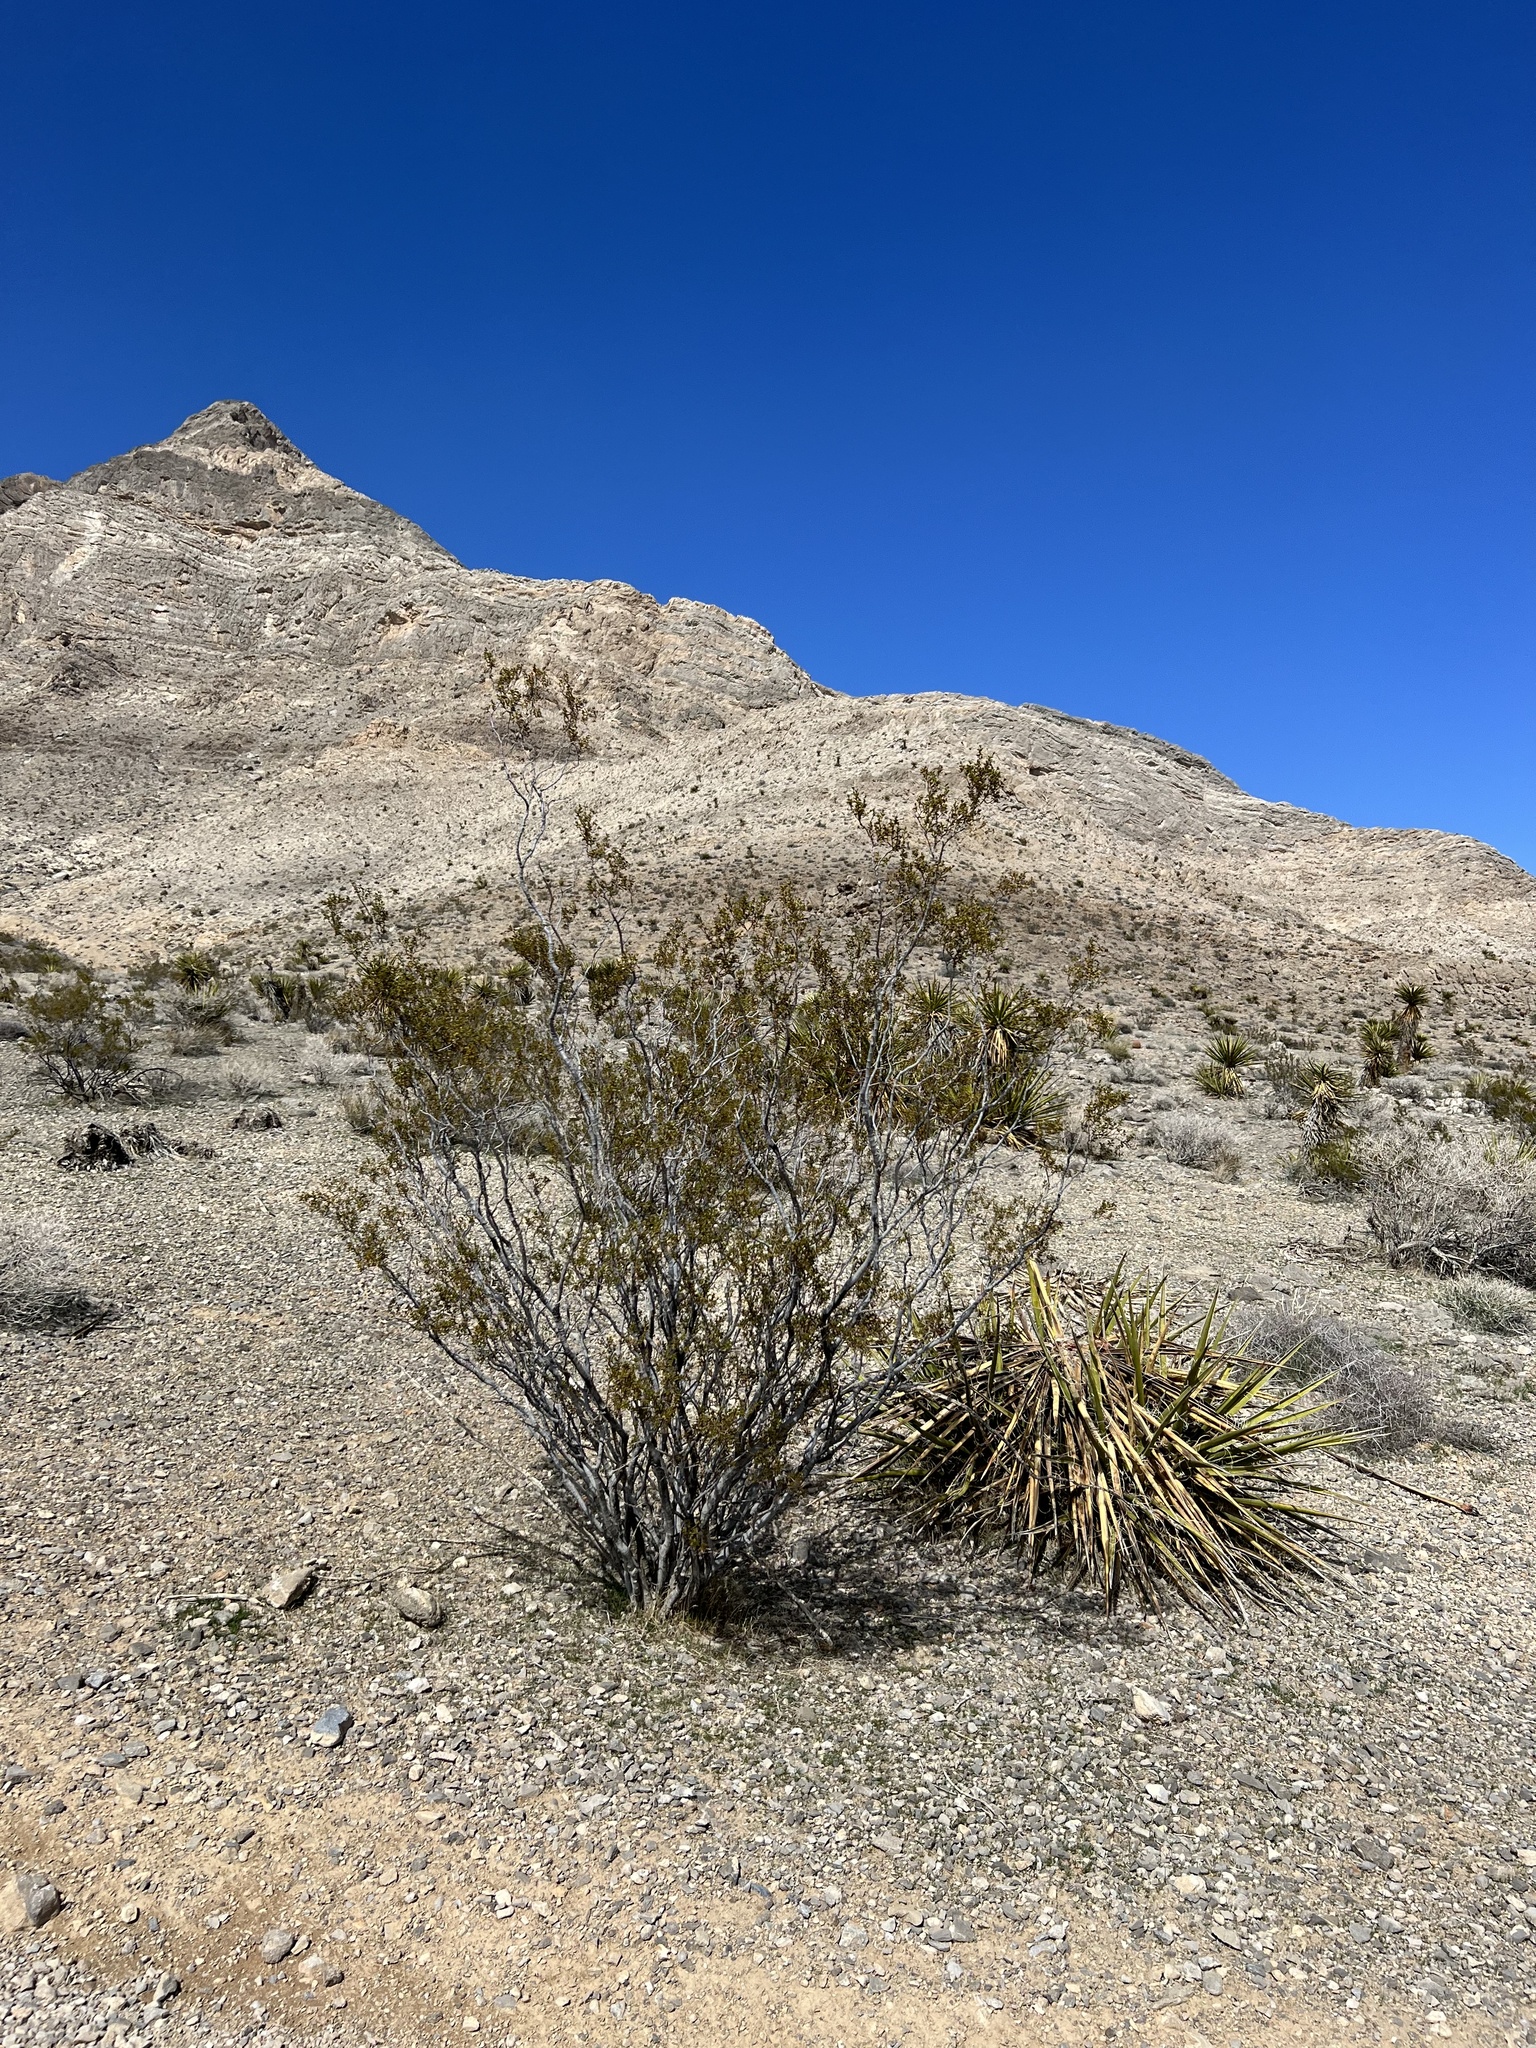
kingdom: Plantae
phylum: Tracheophyta
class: Magnoliopsida
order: Zygophyllales
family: Zygophyllaceae
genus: Larrea
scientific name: Larrea tridentata
